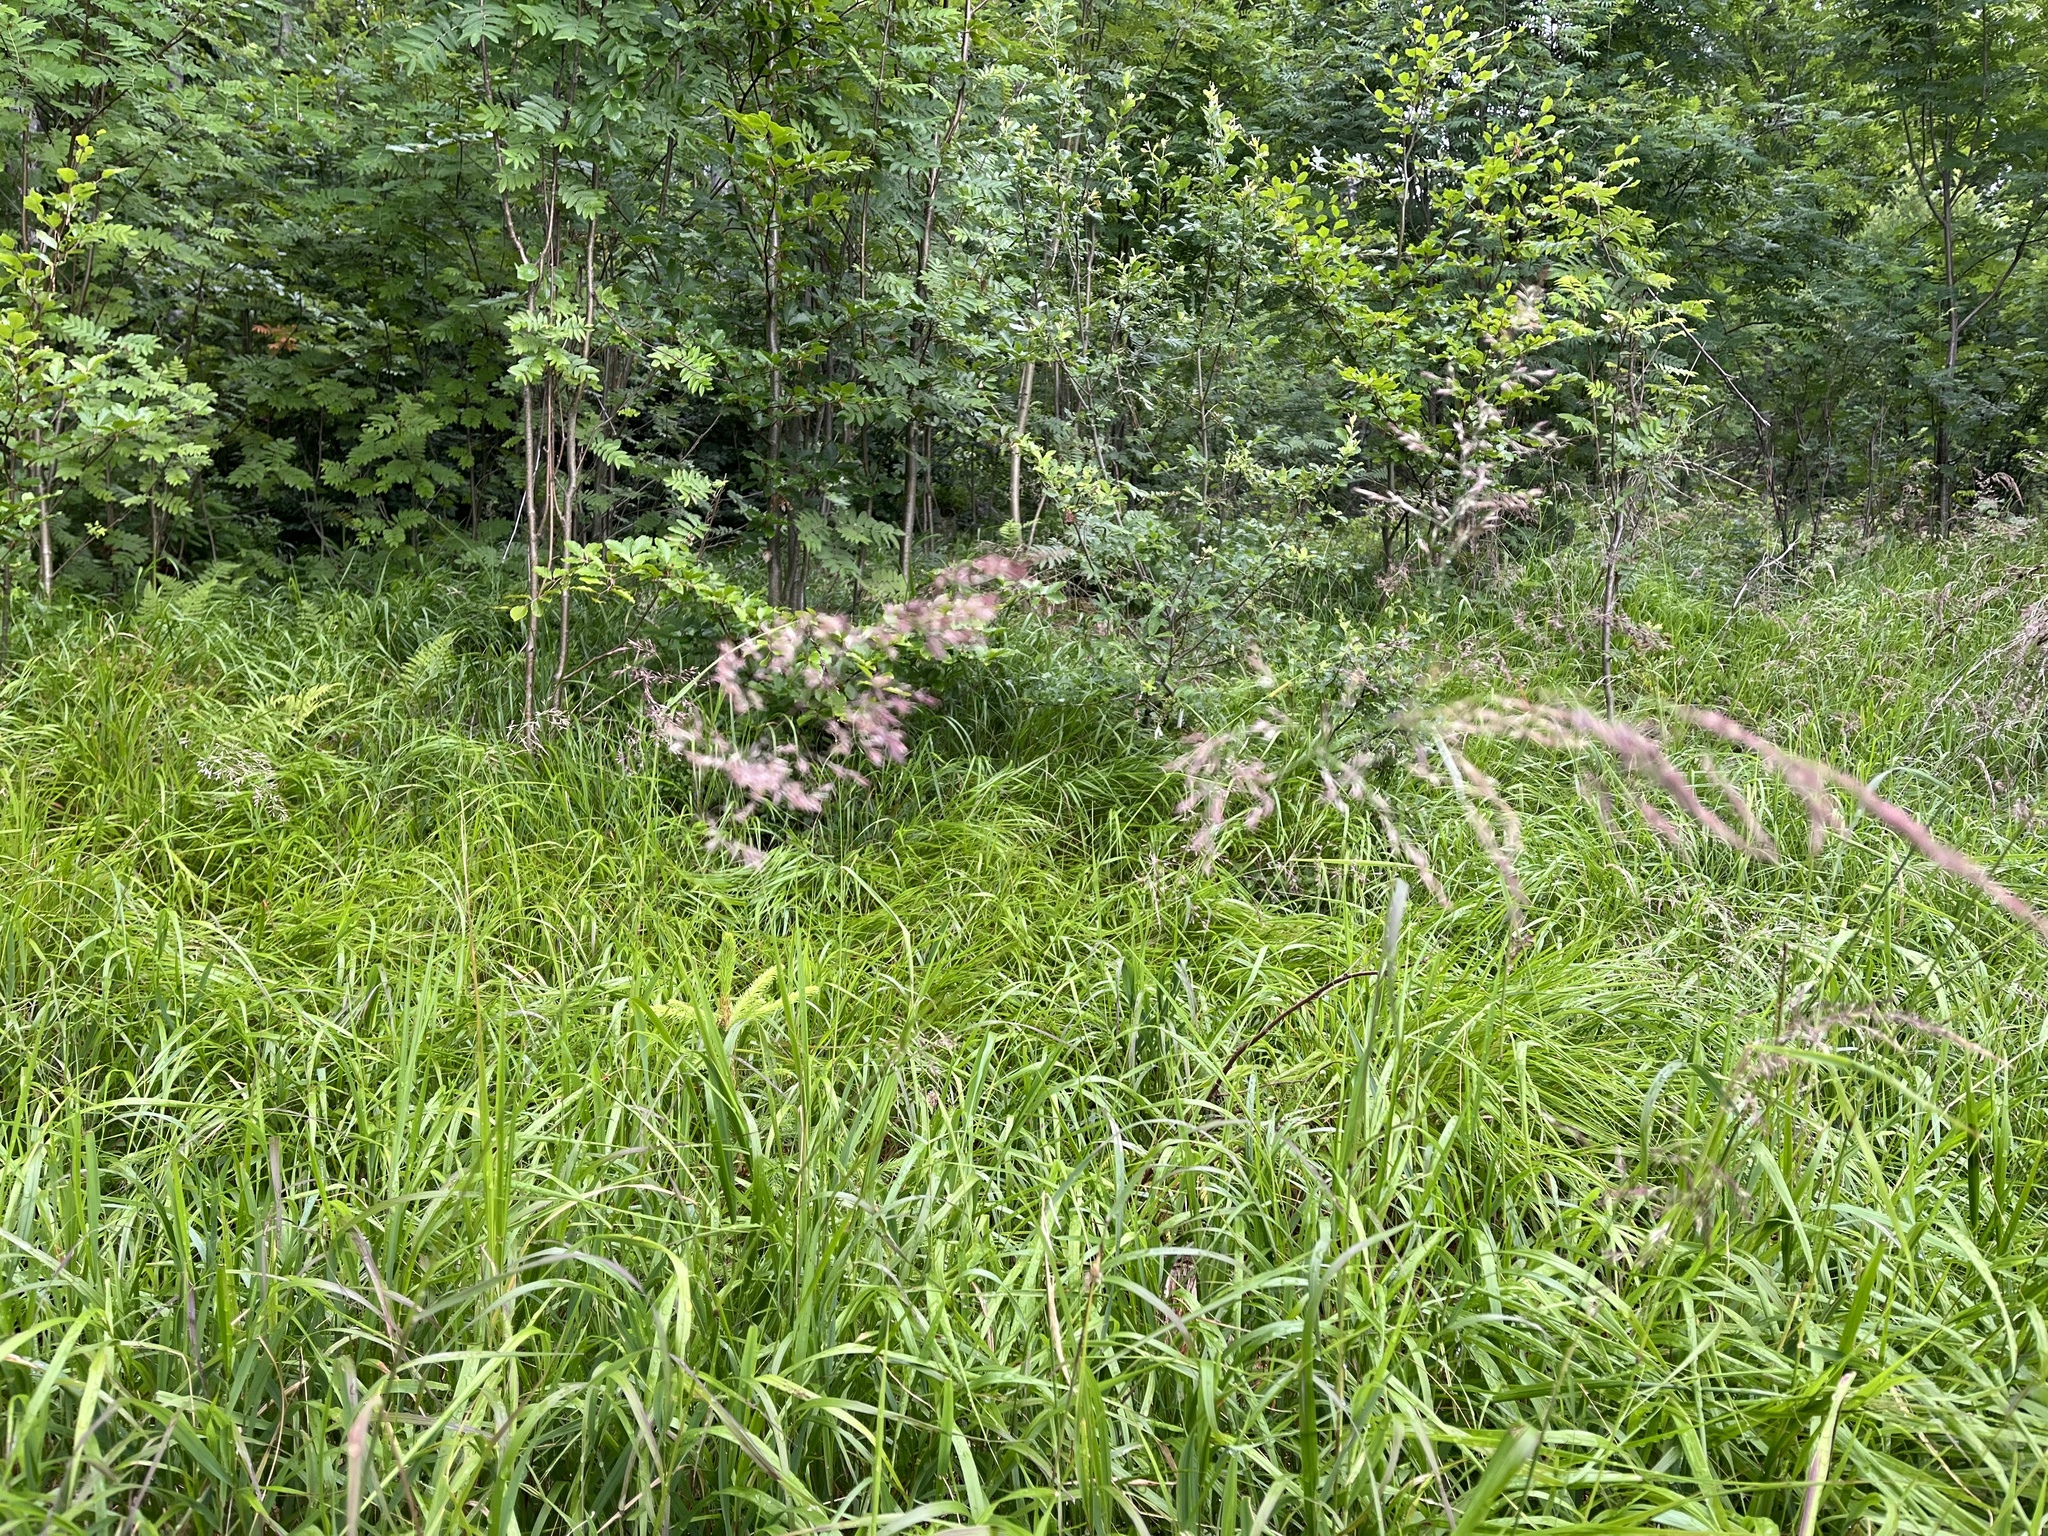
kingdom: Plantae
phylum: Tracheophyta
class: Liliopsida
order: Poales
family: Poaceae
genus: Calamagrostis
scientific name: Calamagrostis villosa
